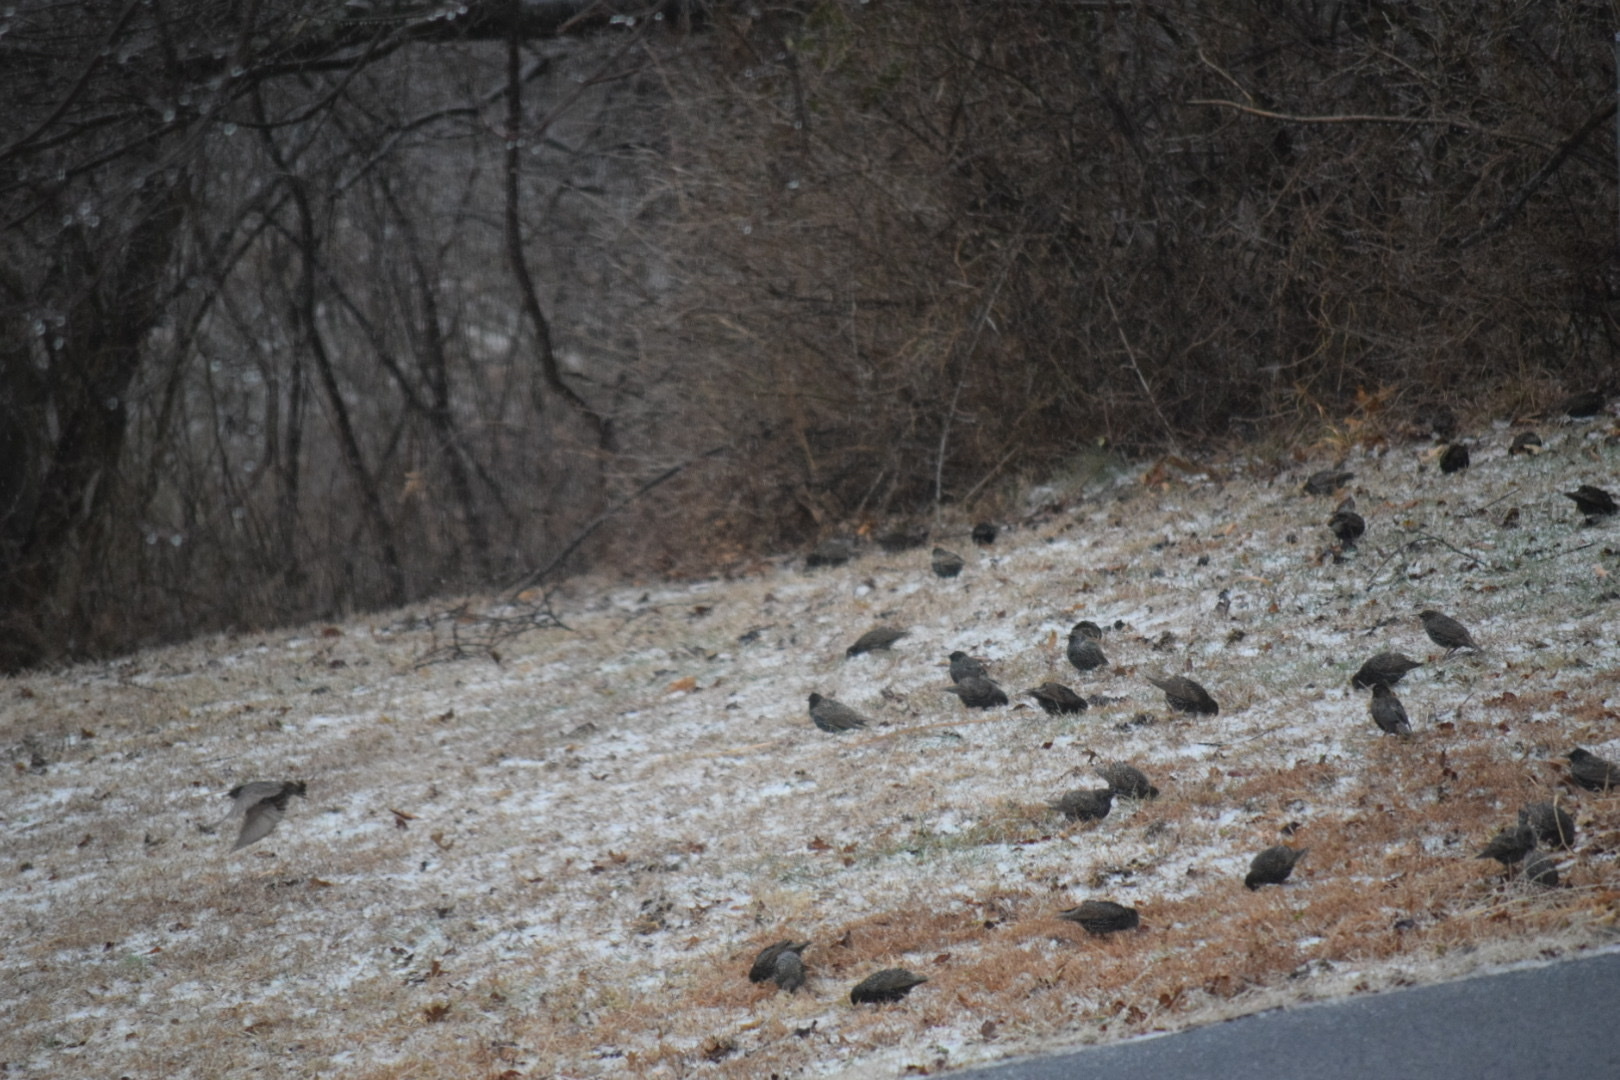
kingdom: Animalia
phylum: Chordata
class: Aves
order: Passeriformes
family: Sturnidae
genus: Sturnus
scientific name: Sturnus vulgaris
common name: Common starling
